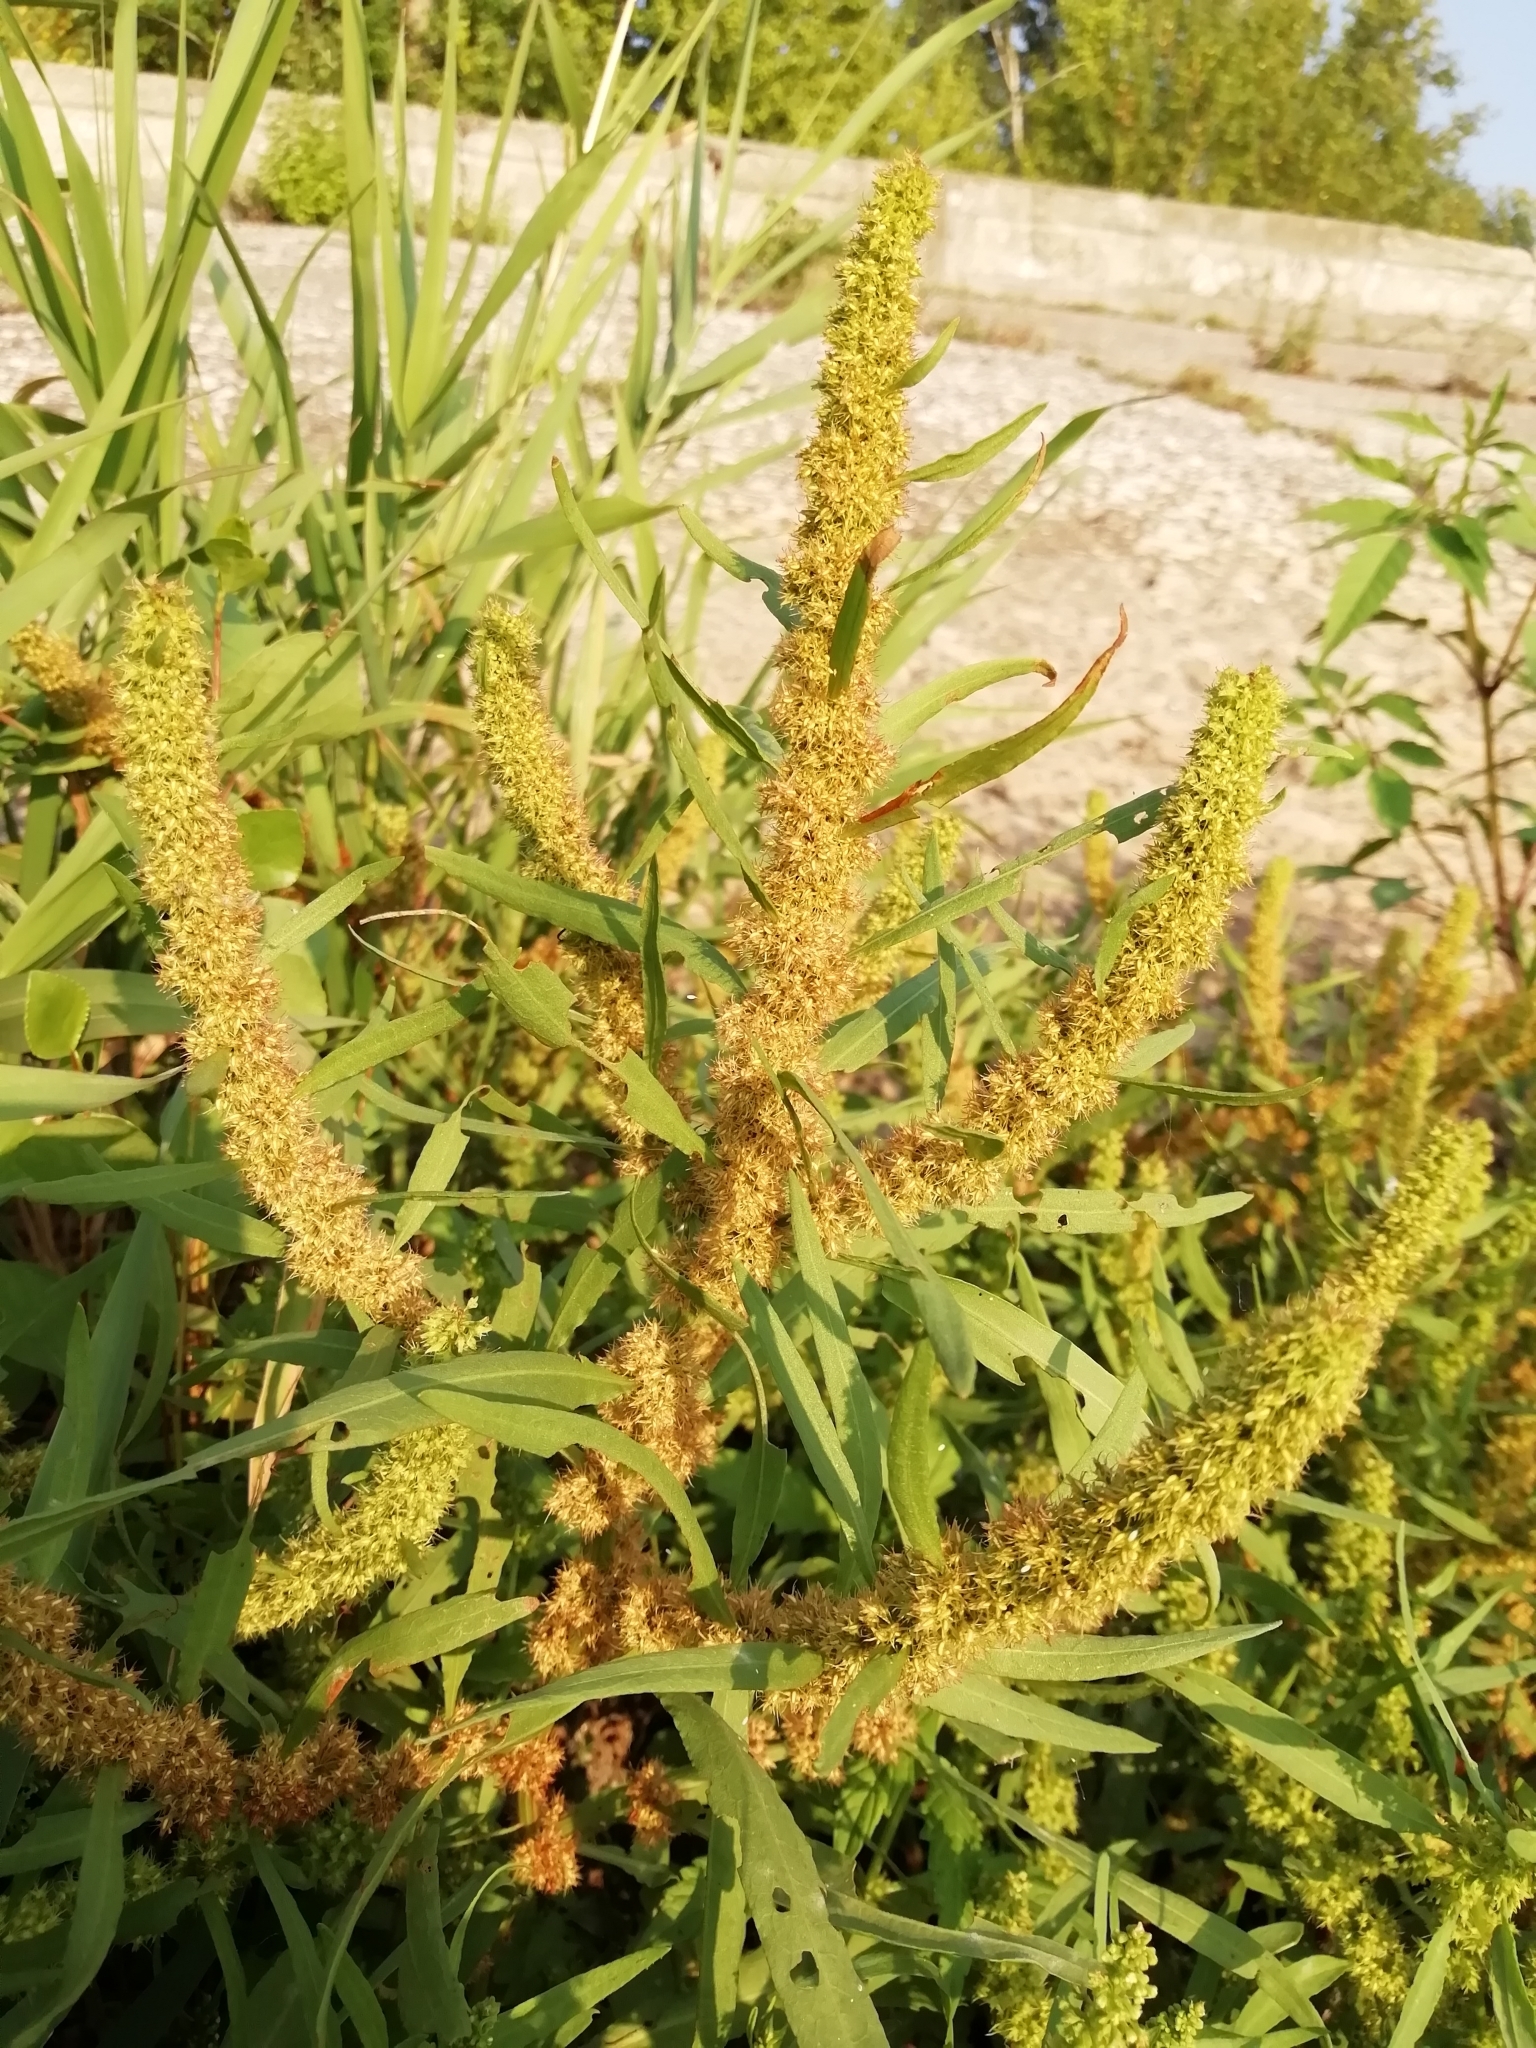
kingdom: Plantae
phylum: Tracheophyta
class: Magnoliopsida
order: Caryophyllales
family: Polygonaceae
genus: Rumex
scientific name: Rumex maritimus
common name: Golden dock
